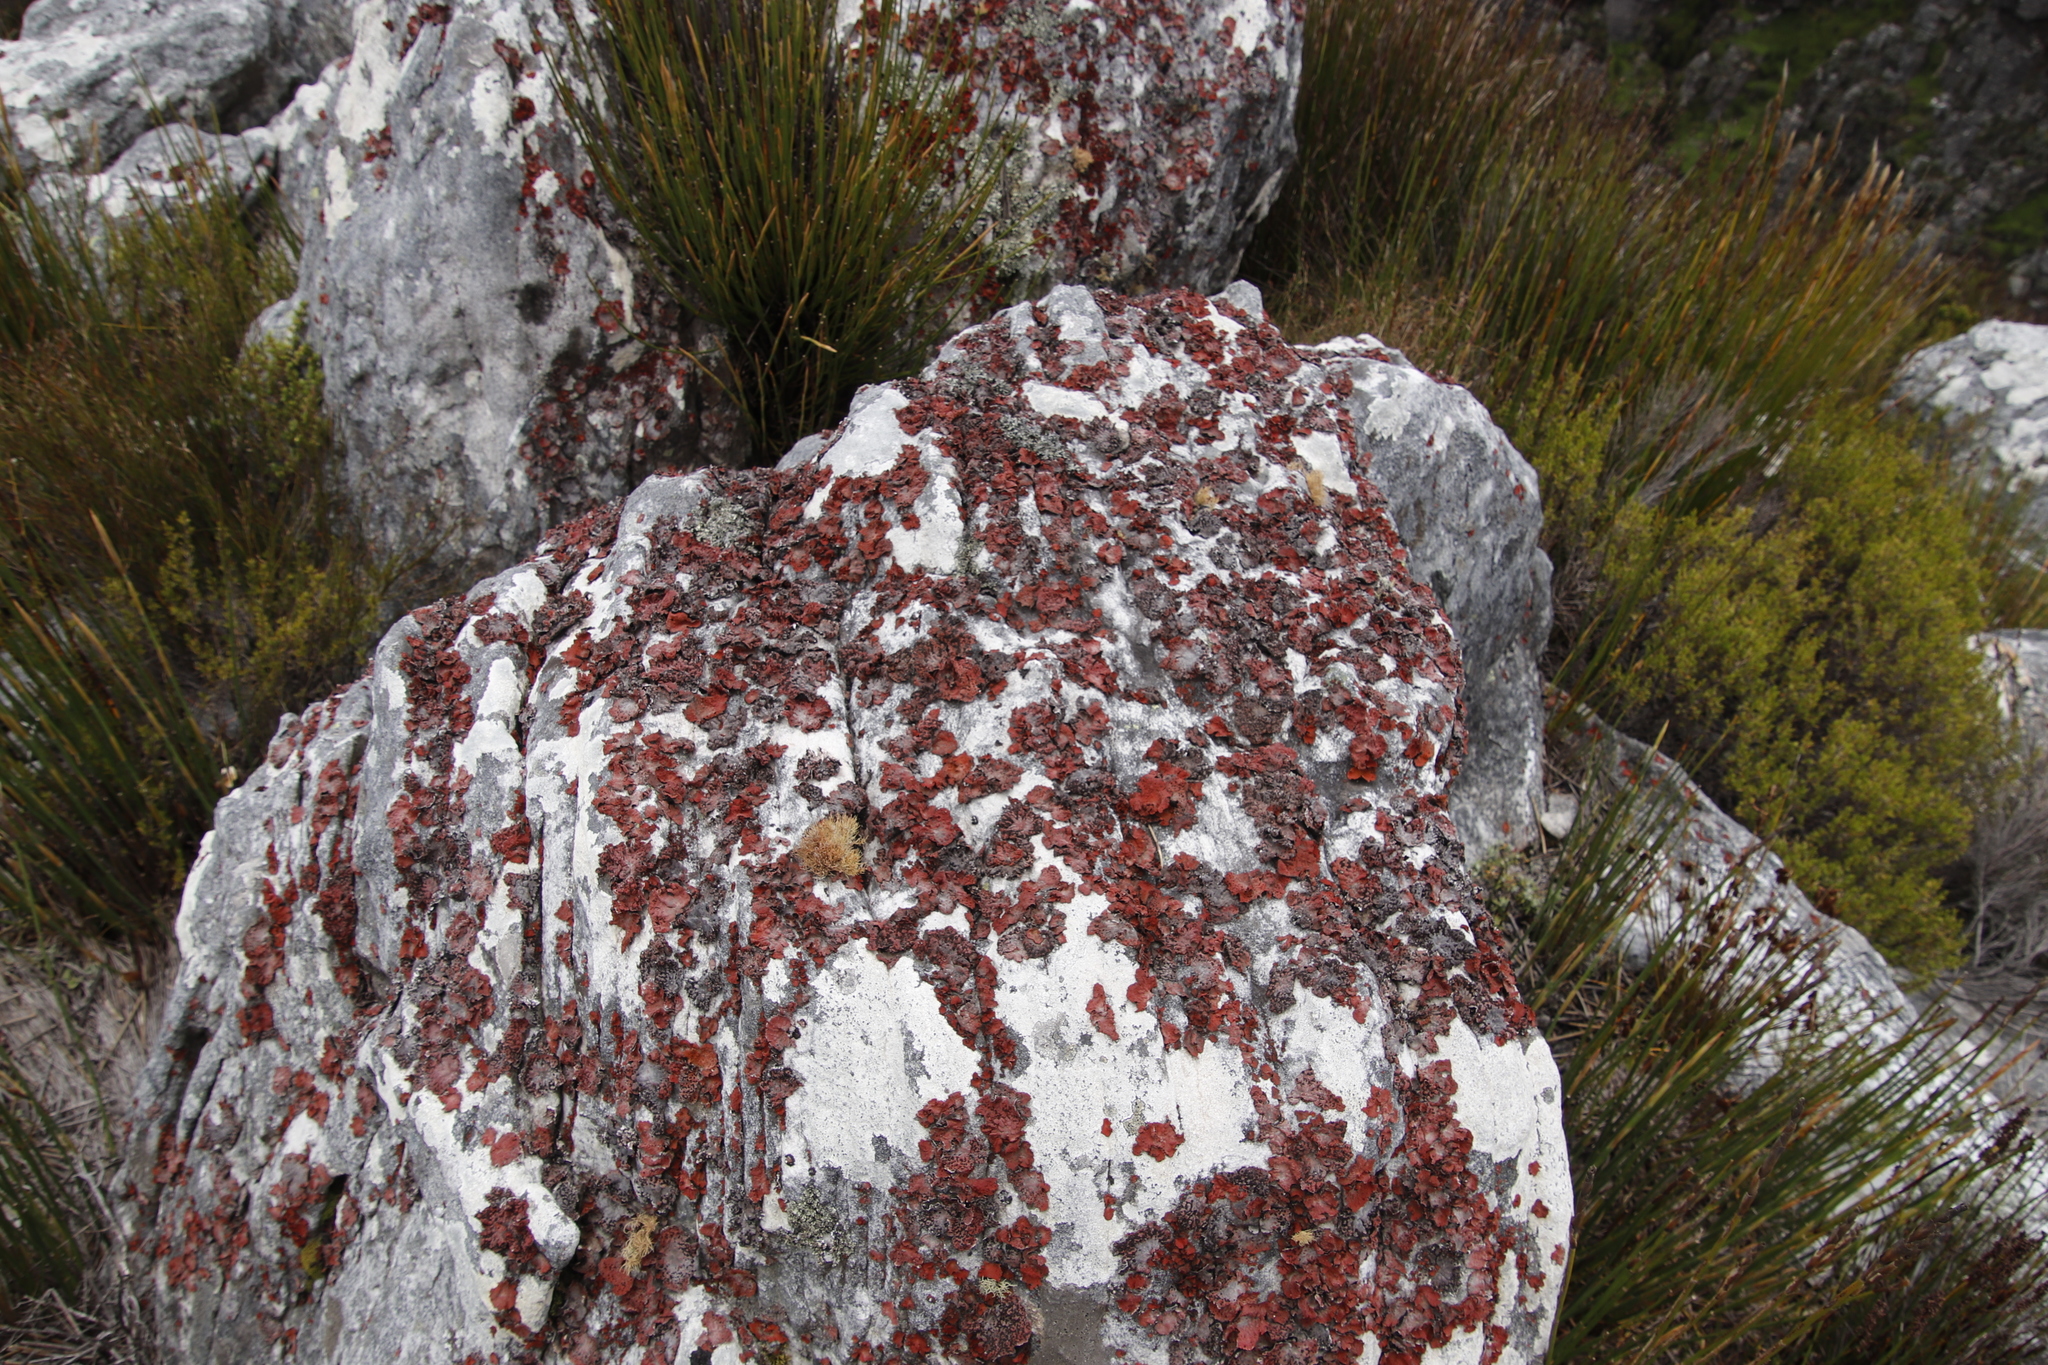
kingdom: Fungi
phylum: Ascomycota
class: Lecanoromycetes
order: Lecanorales
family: Parmeliaceae
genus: Usnea
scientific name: Usnea maculata
